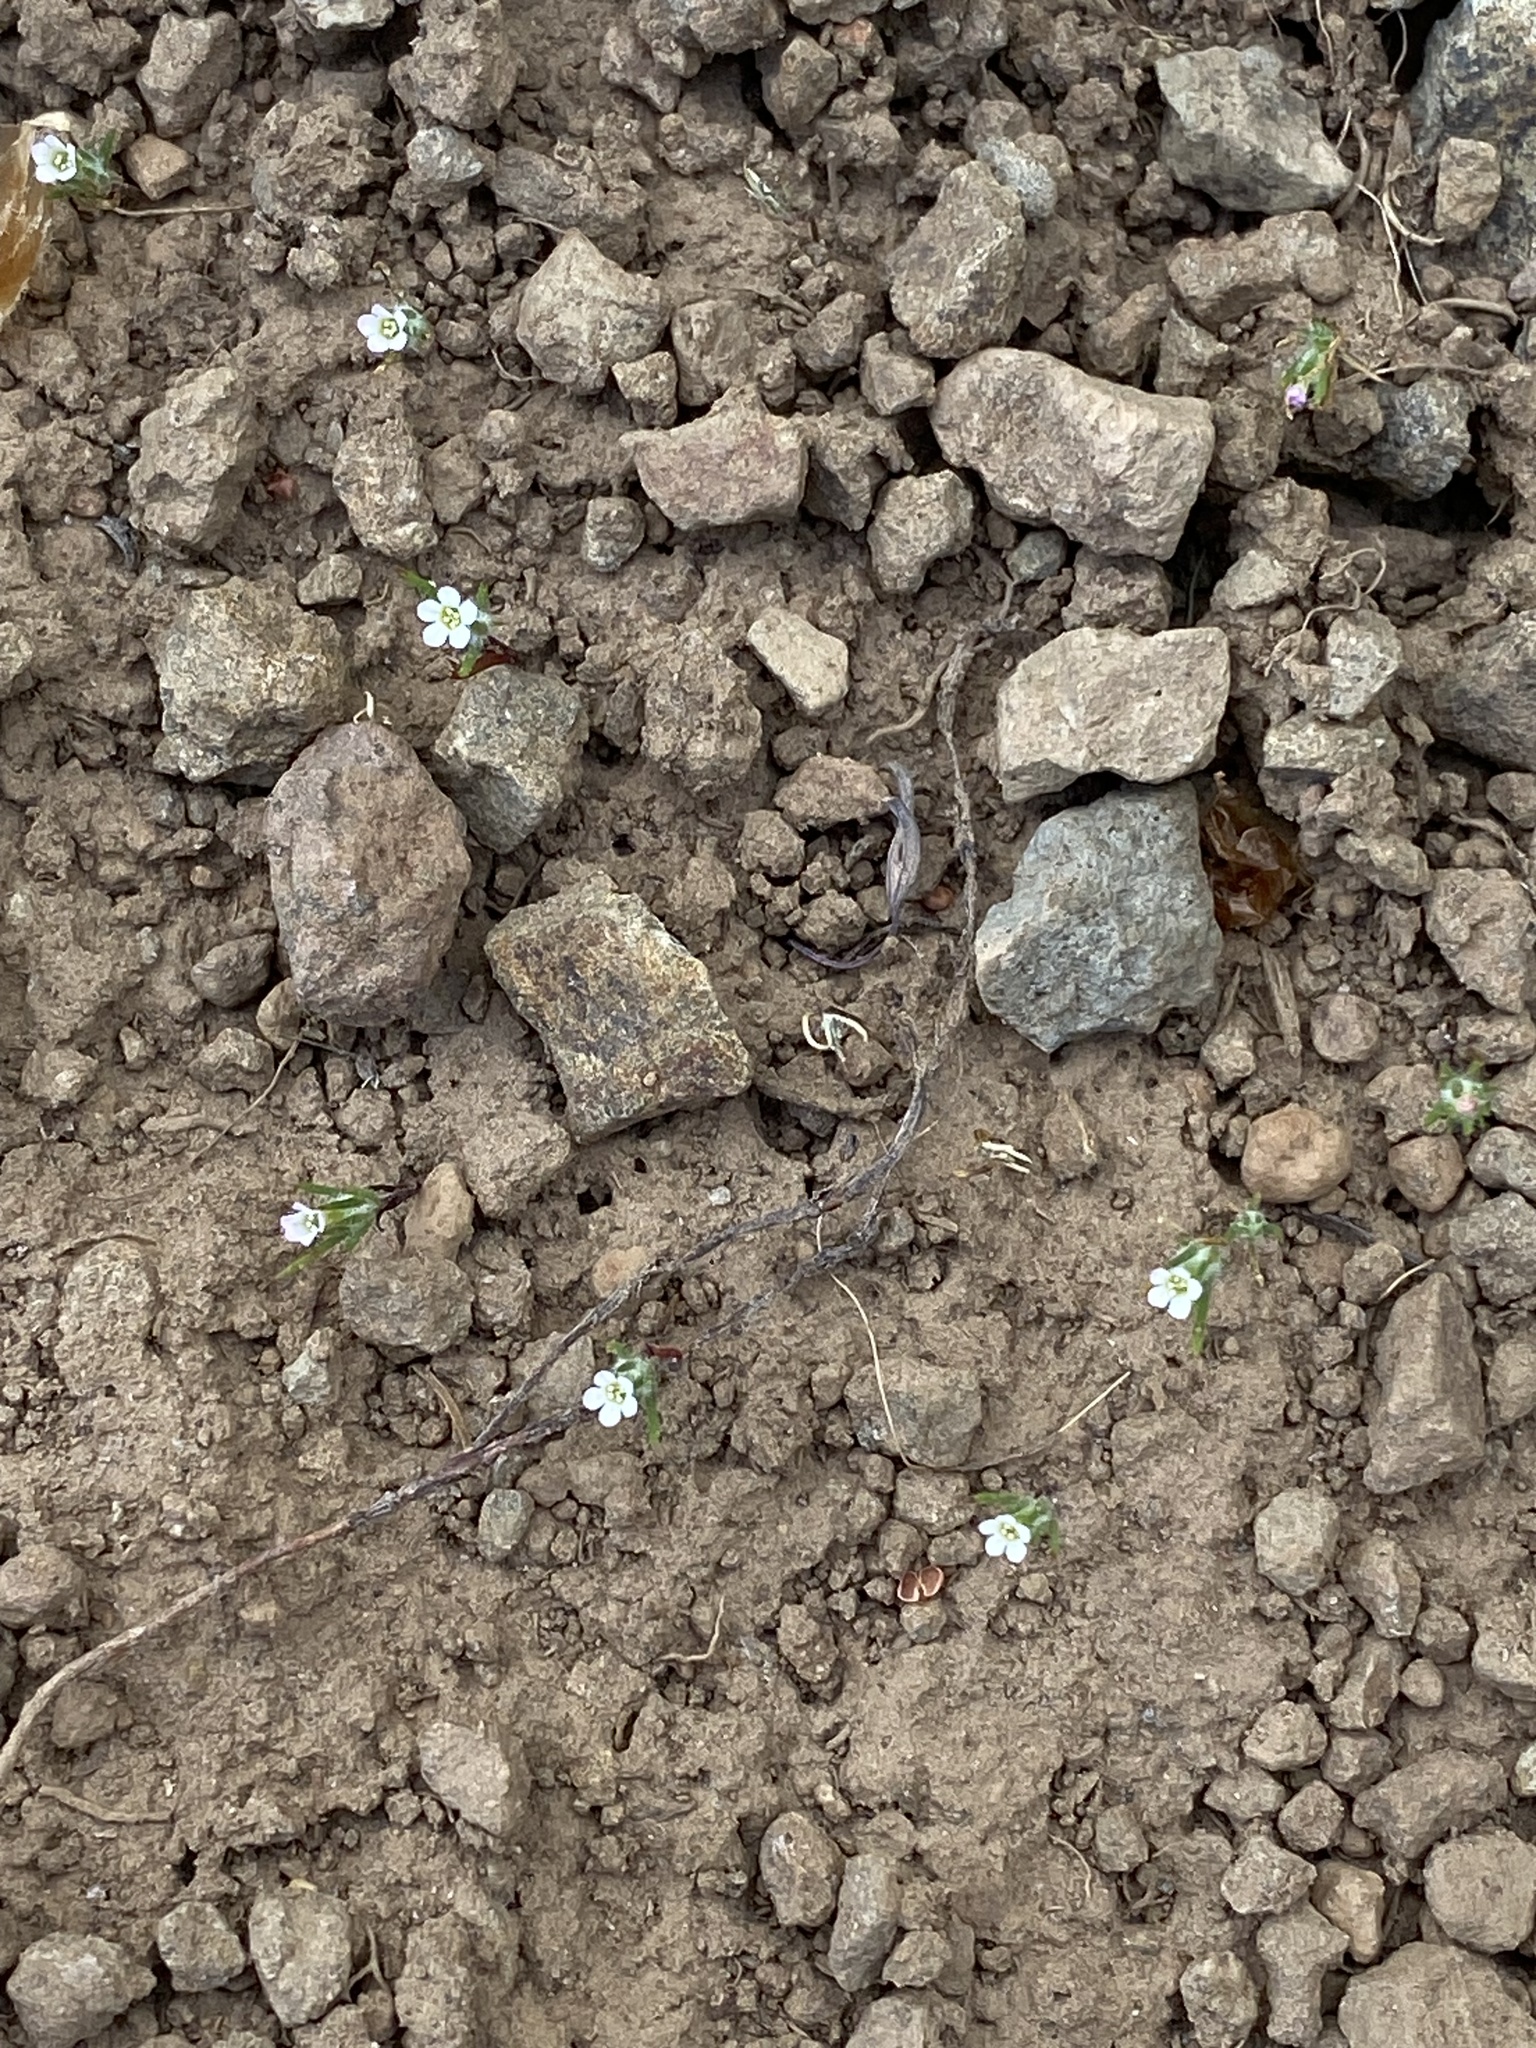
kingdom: Plantae
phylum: Tracheophyta
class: Magnoliopsida
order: Ericales
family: Polemoniaceae
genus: Navarretia
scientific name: Navarretia divaricata
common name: Mountain navarretia
